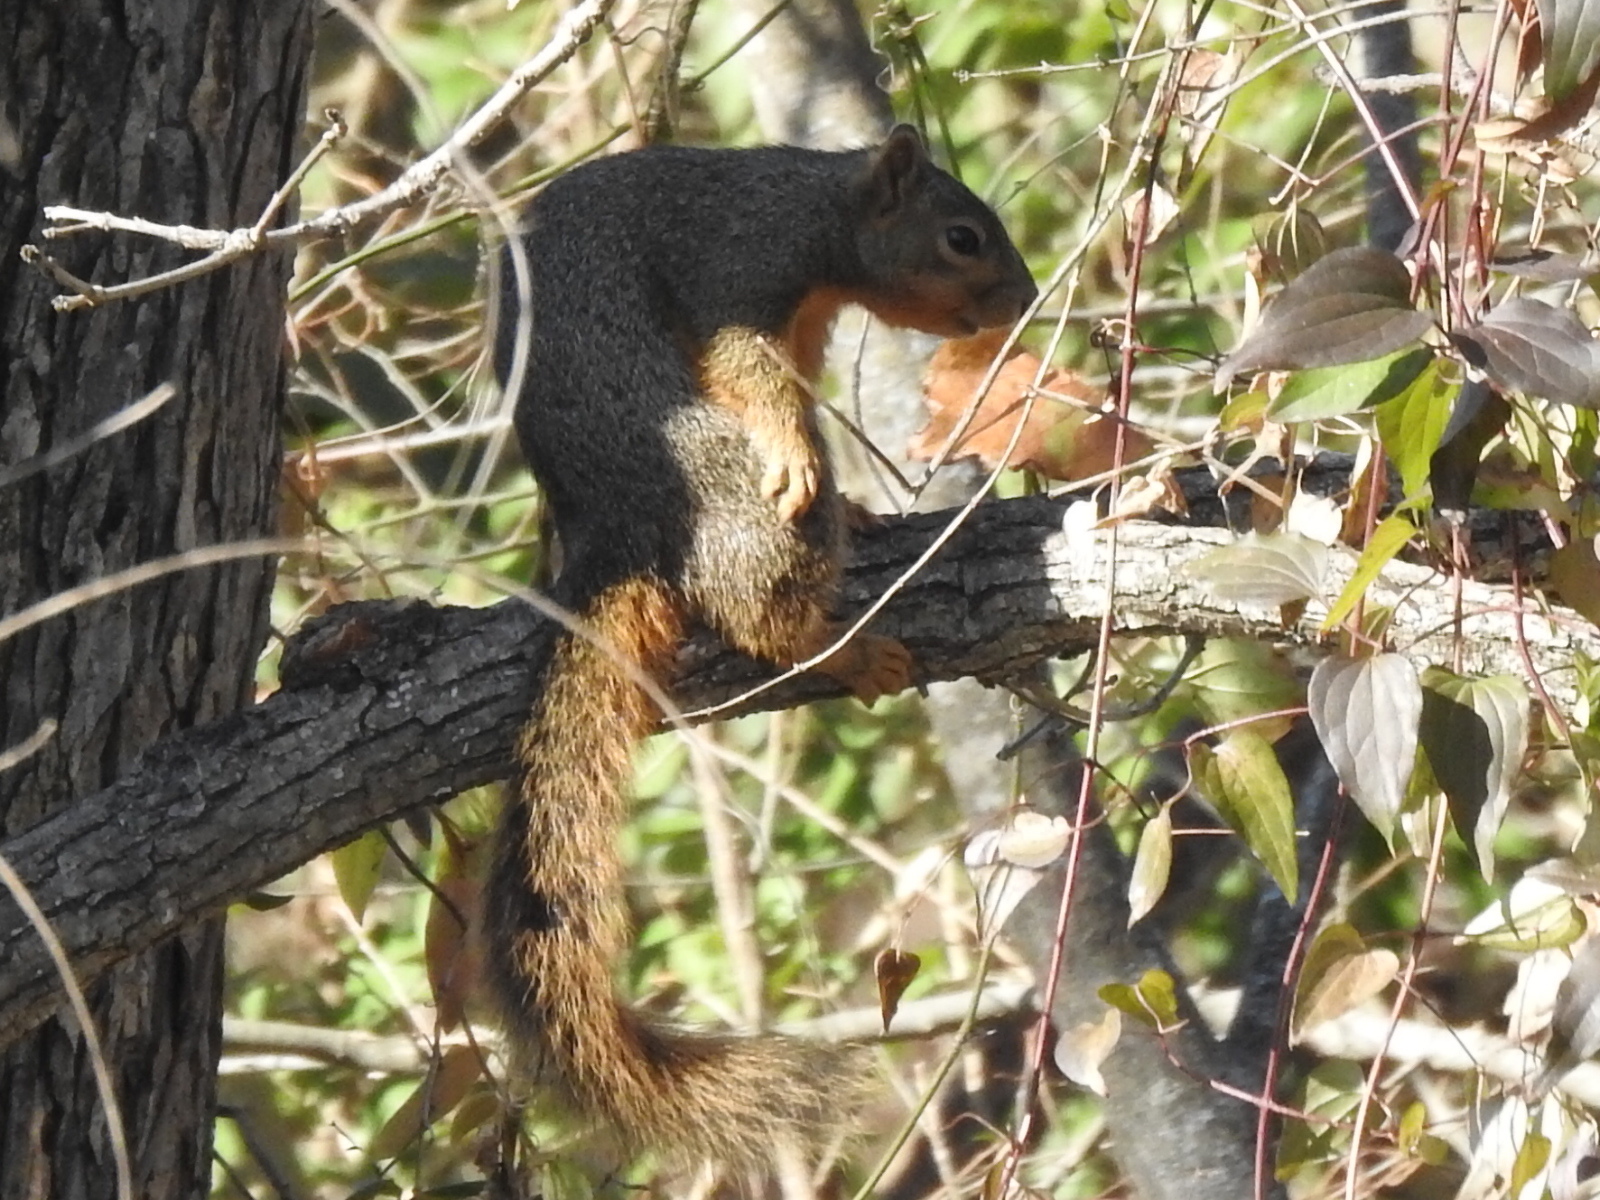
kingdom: Animalia
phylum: Chordata
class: Mammalia
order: Rodentia
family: Sciuridae
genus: Sciurus
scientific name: Sciurus niger
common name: Fox squirrel
